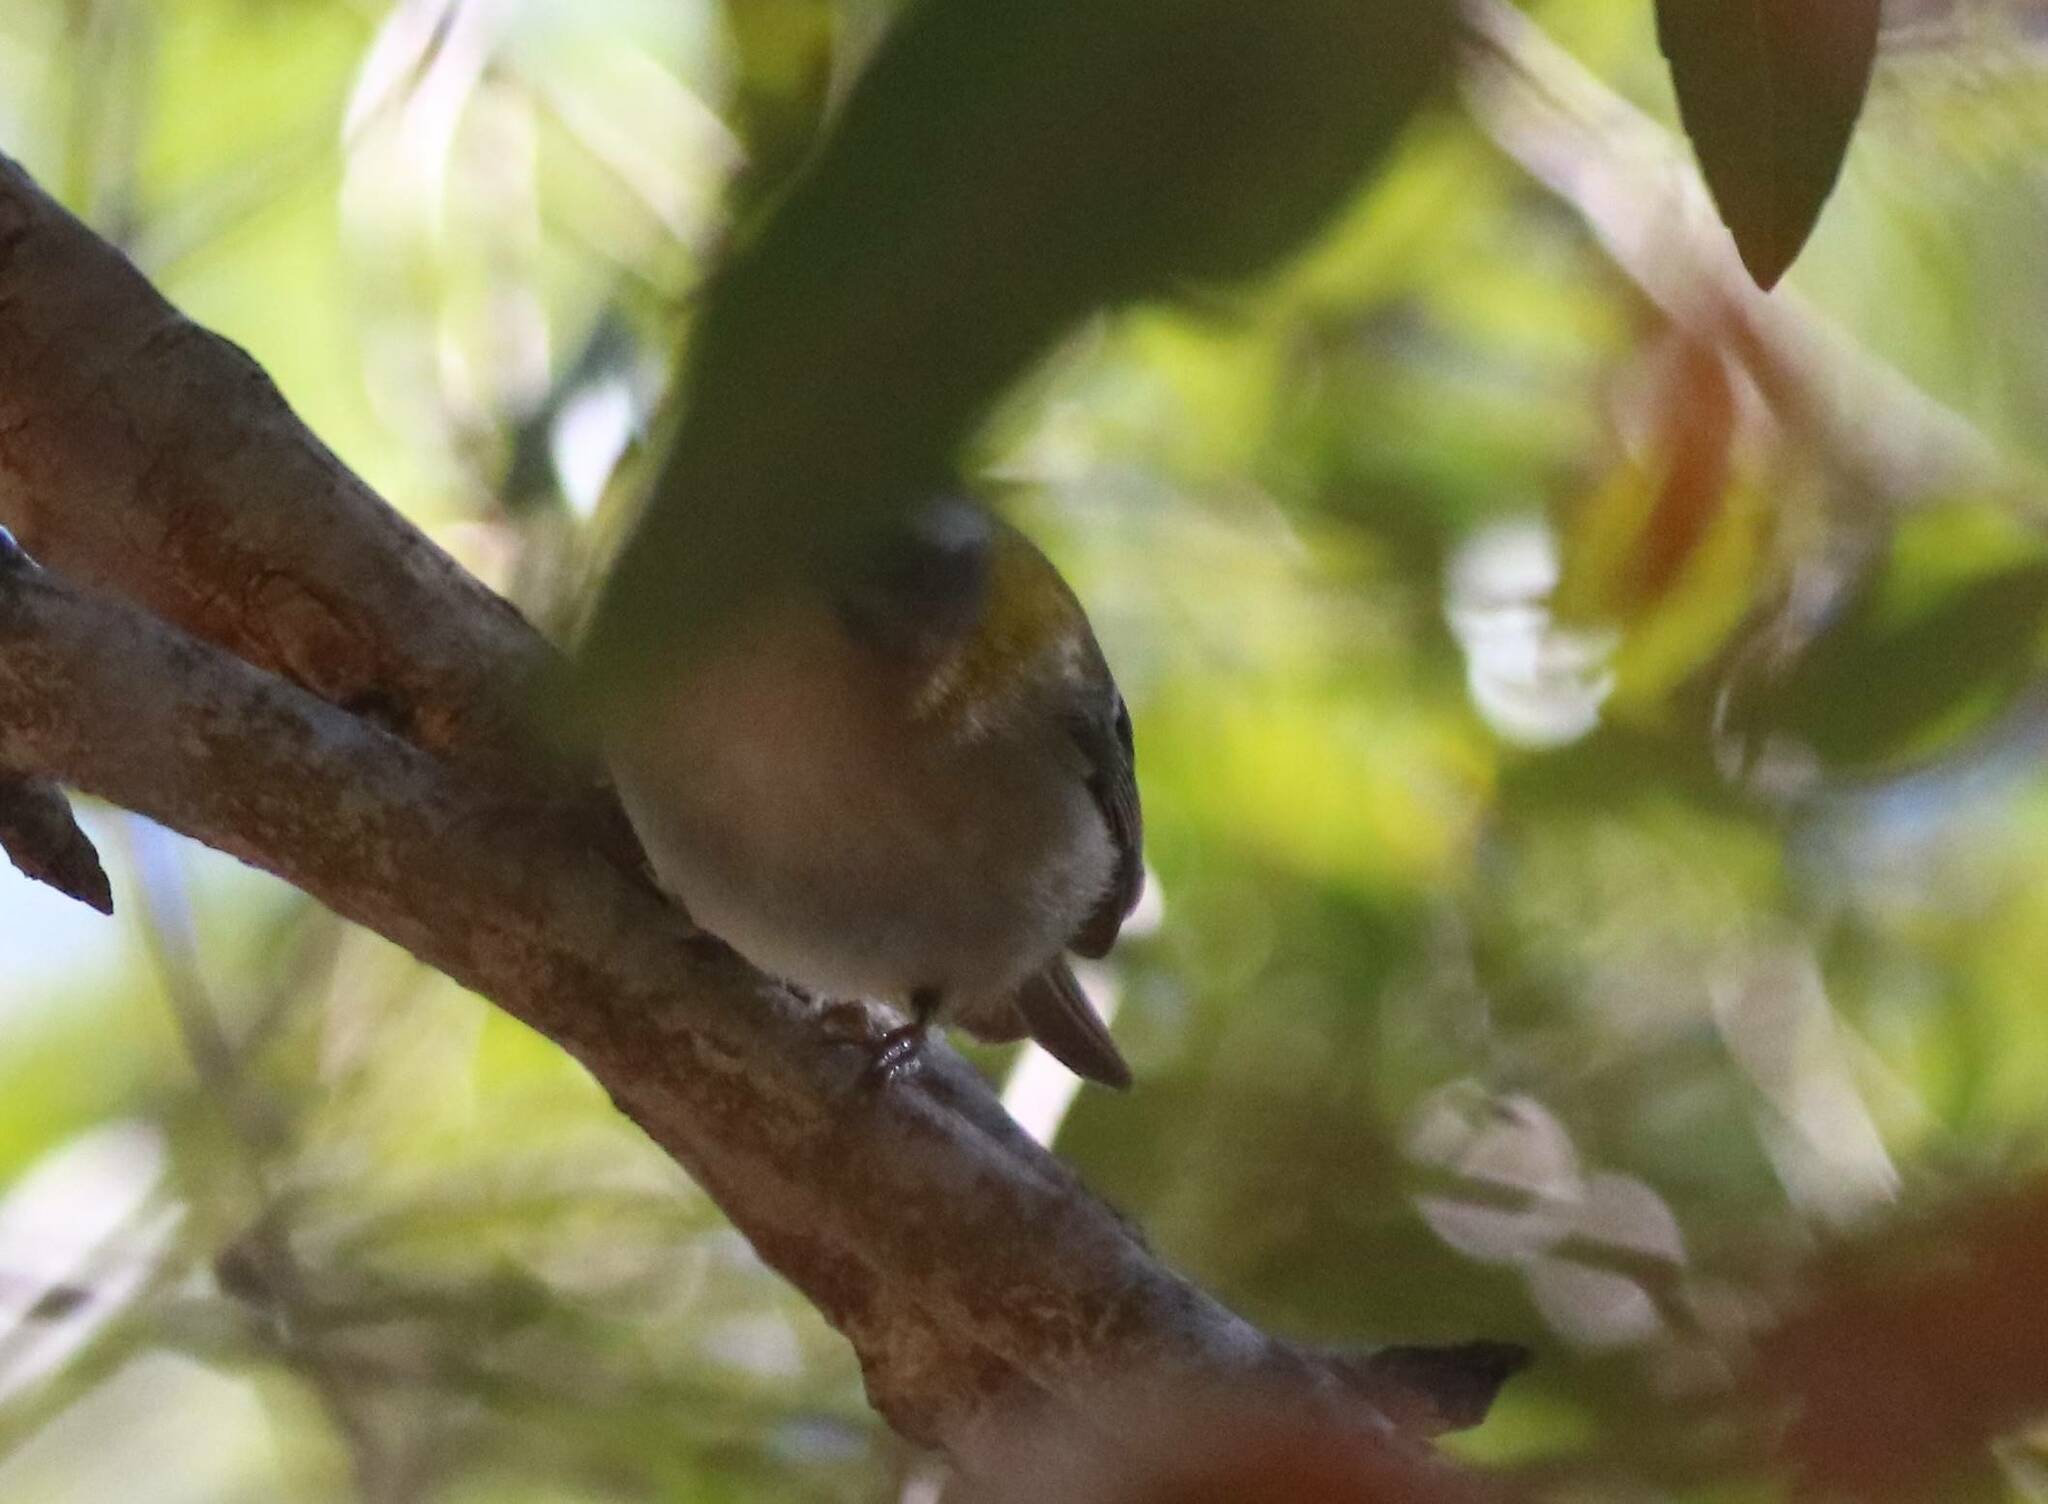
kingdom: Animalia
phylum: Chordata
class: Aves
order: Passeriformes
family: Regulidae
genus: Regulus
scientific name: Regulus ignicapilla
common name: Firecrest
